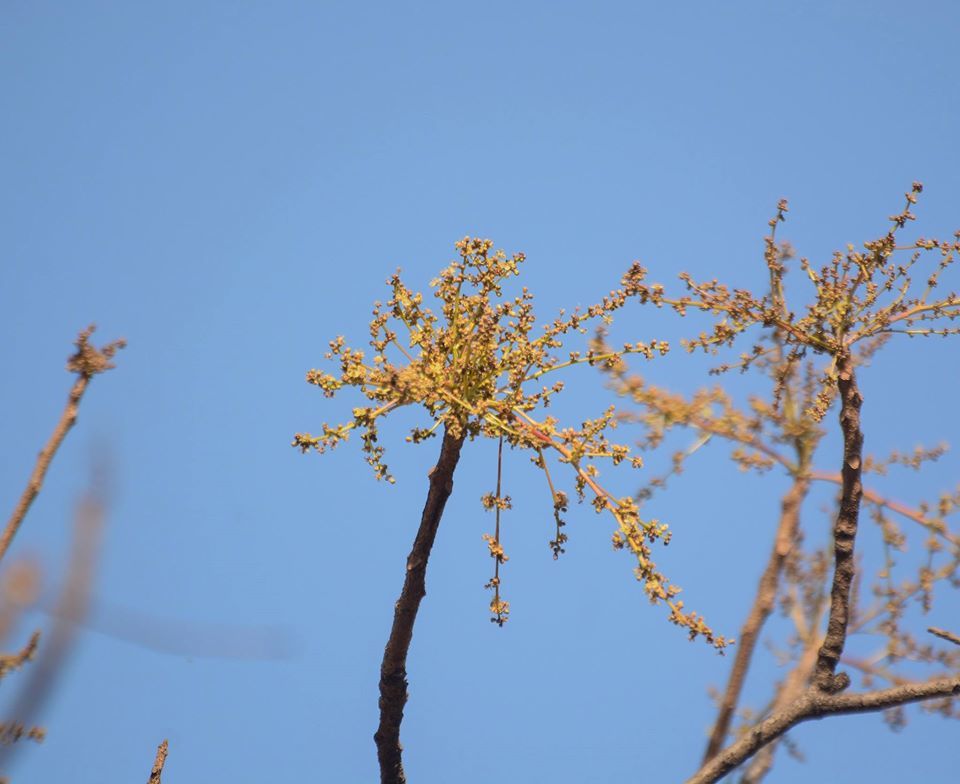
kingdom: Plantae
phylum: Tracheophyta
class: Magnoliopsida
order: Sapindales
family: Anacardiaceae
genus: Lannea
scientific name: Lannea coromandelica
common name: Indian ash tree
